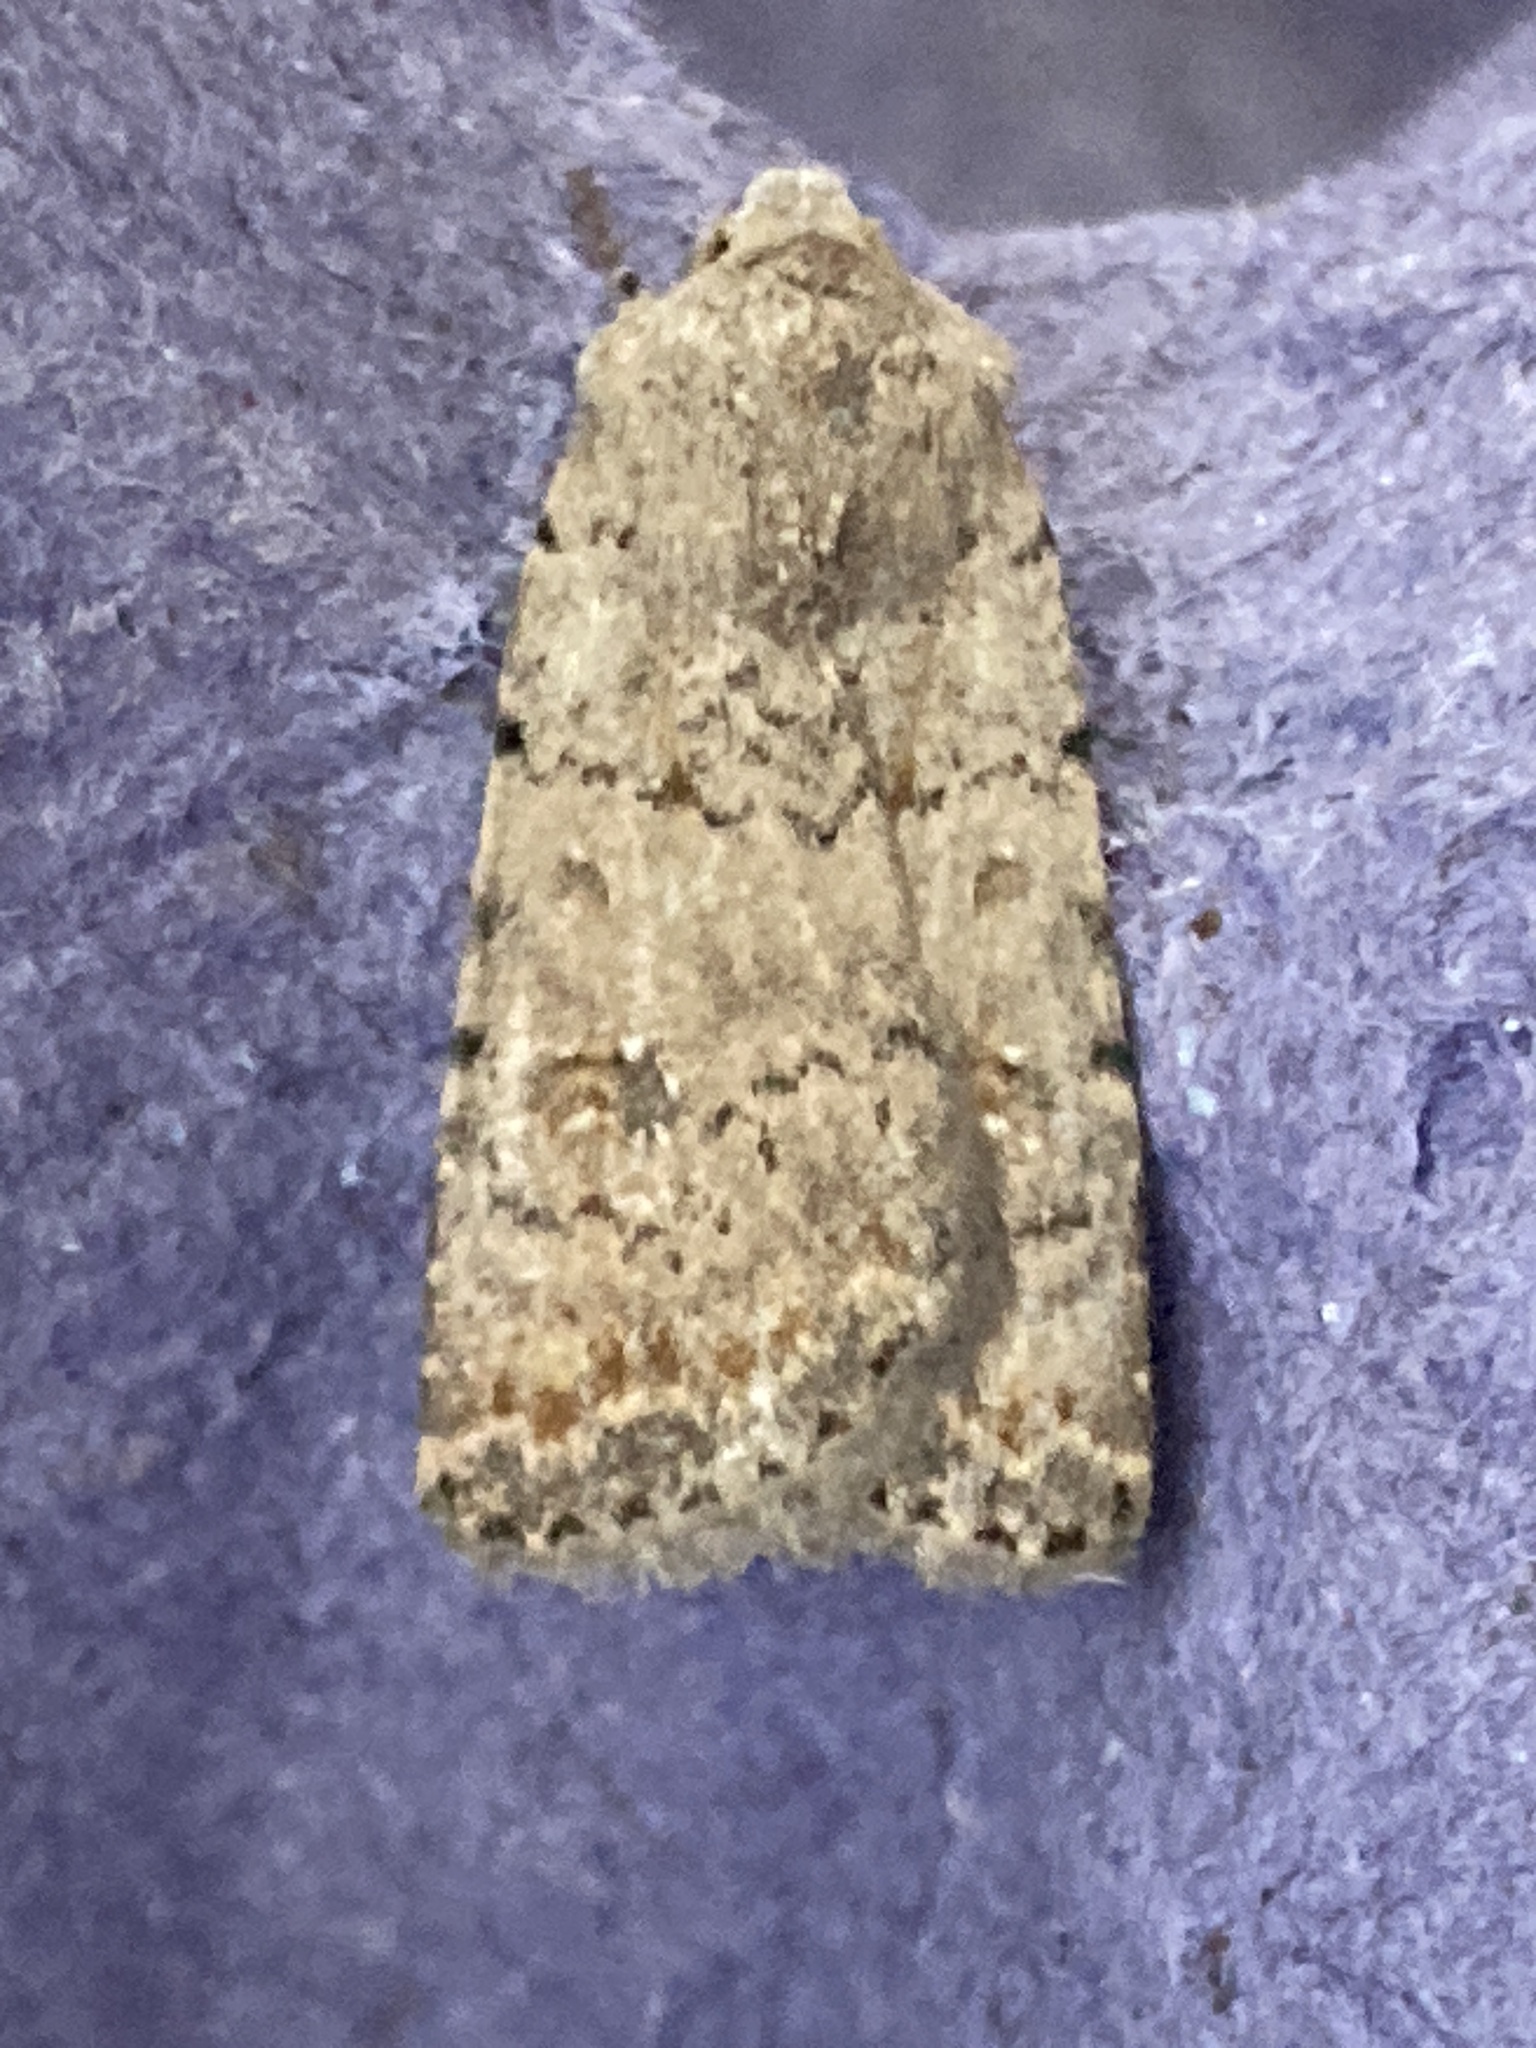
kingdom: Animalia
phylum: Arthropoda
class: Insecta
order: Lepidoptera
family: Noctuidae
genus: Caradrina
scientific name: Caradrina clavipalpis
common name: Pale mottled willow
